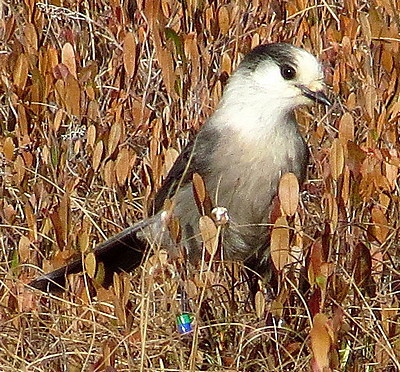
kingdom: Animalia
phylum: Chordata
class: Aves
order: Passeriformes
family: Corvidae
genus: Perisoreus
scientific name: Perisoreus canadensis
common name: Gray jay
